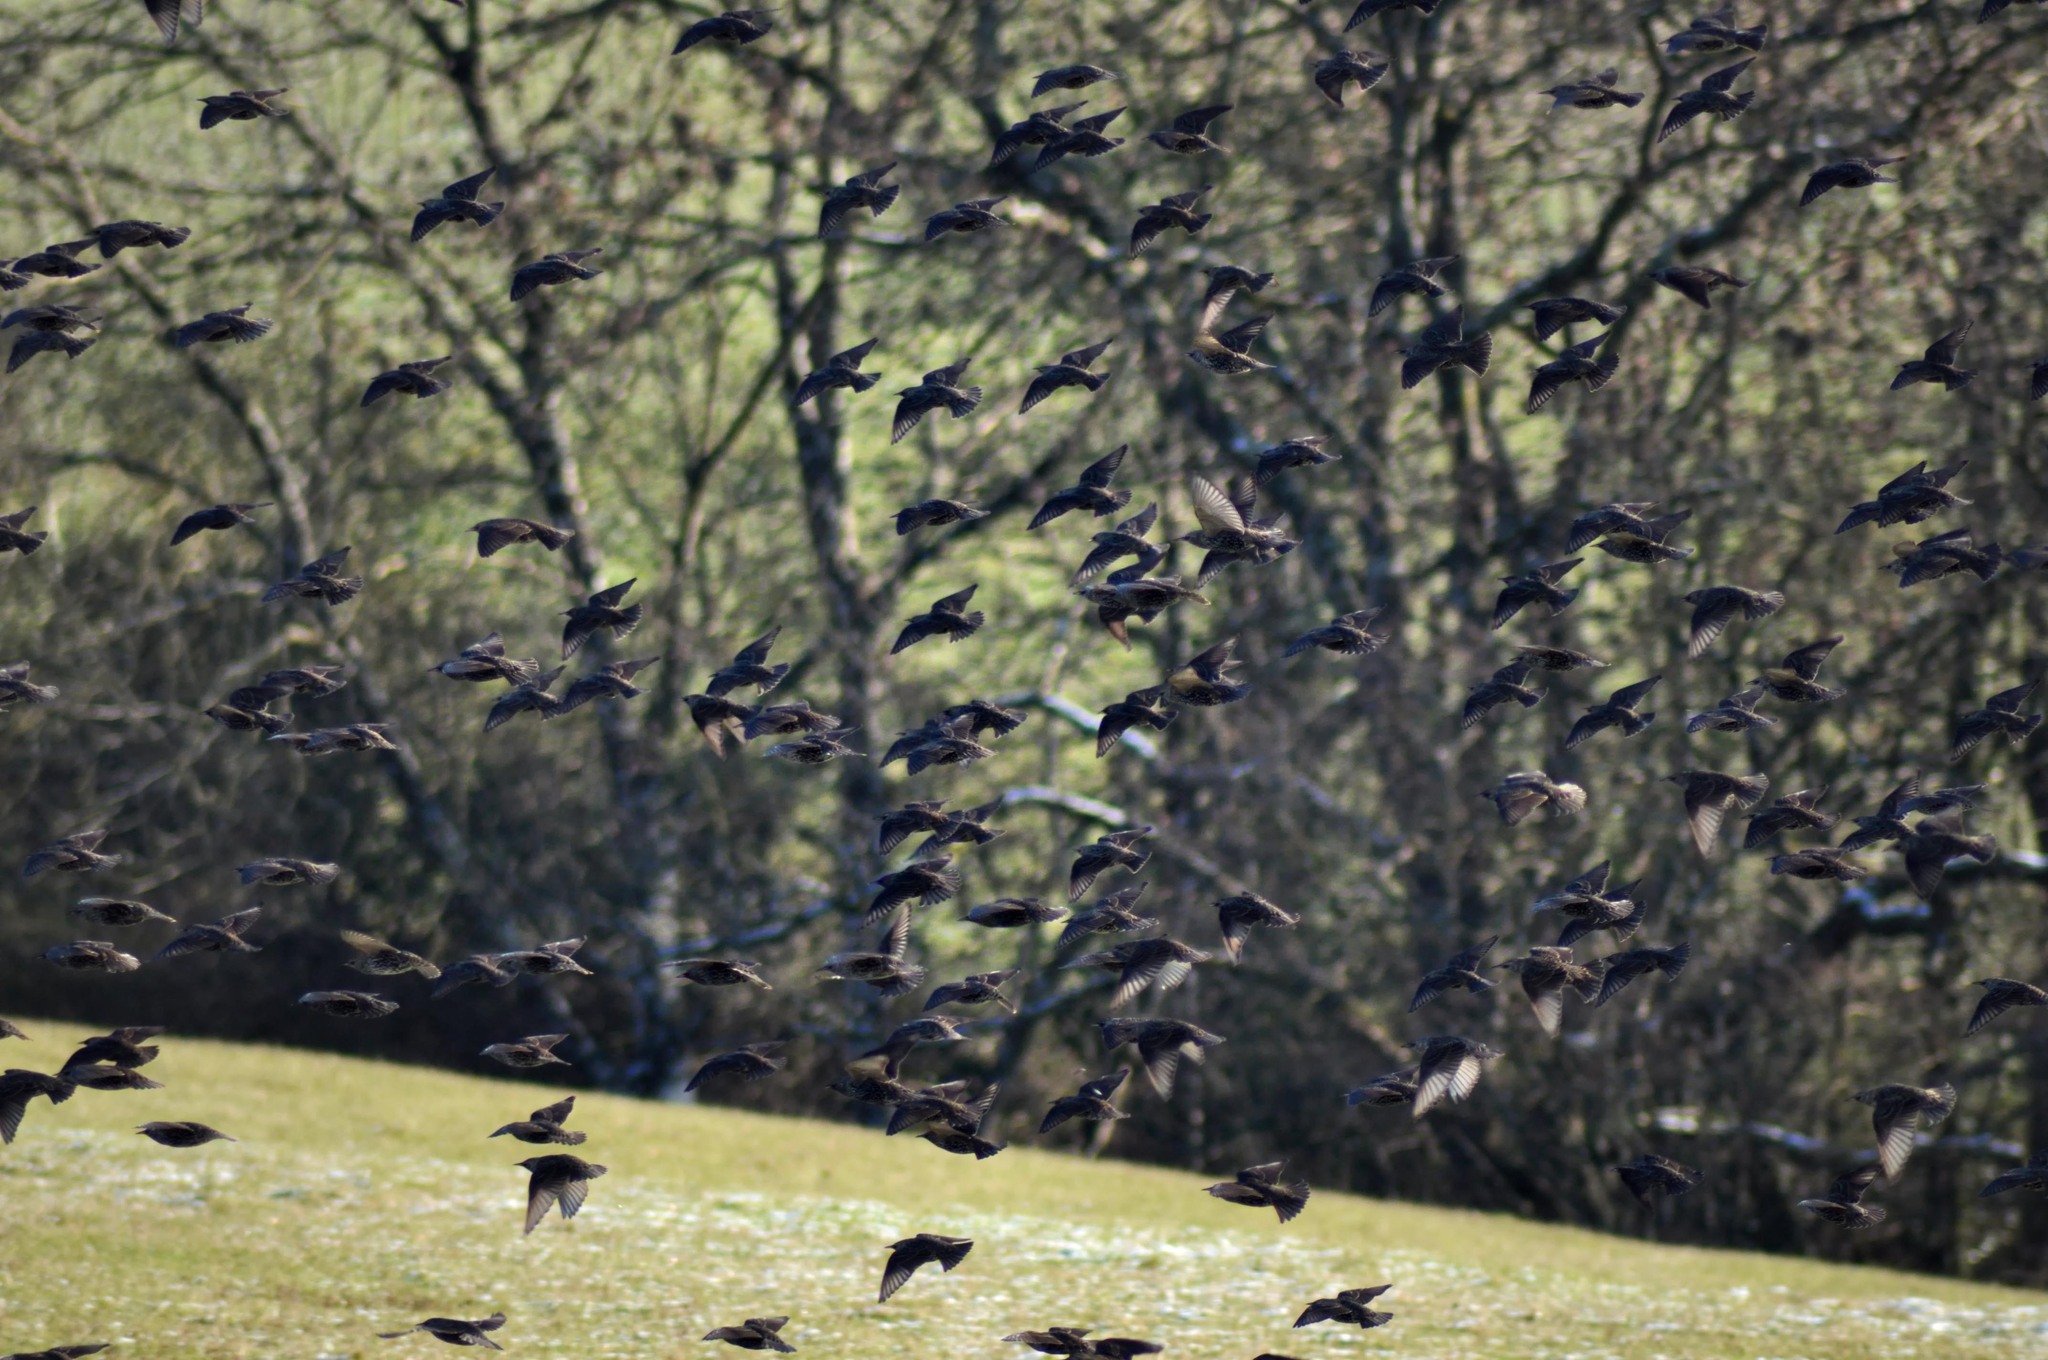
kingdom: Animalia
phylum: Chordata
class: Aves
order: Passeriformes
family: Sturnidae
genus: Sturnus
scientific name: Sturnus vulgaris
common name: Common starling
